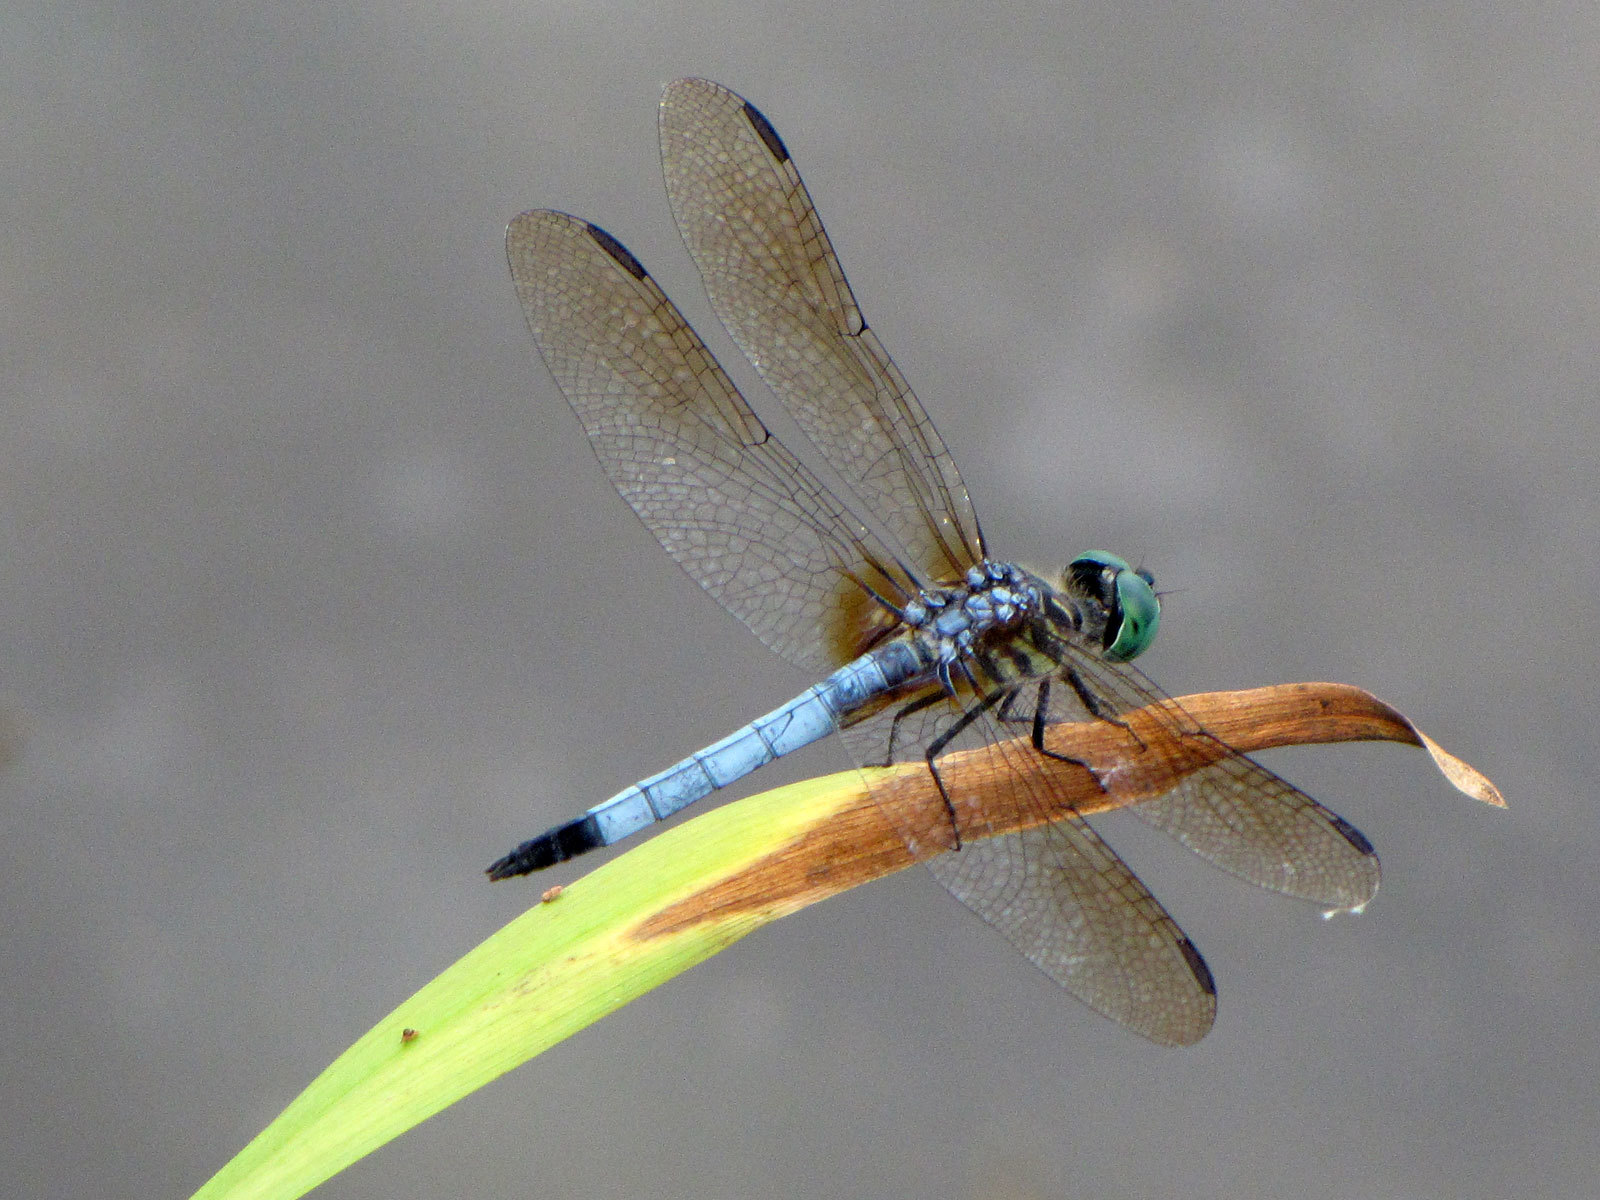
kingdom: Animalia
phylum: Arthropoda
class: Insecta
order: Odonata
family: Libellulidae
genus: Pachydiplax
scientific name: Pachydiplax longipennis
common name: Blue dasher
